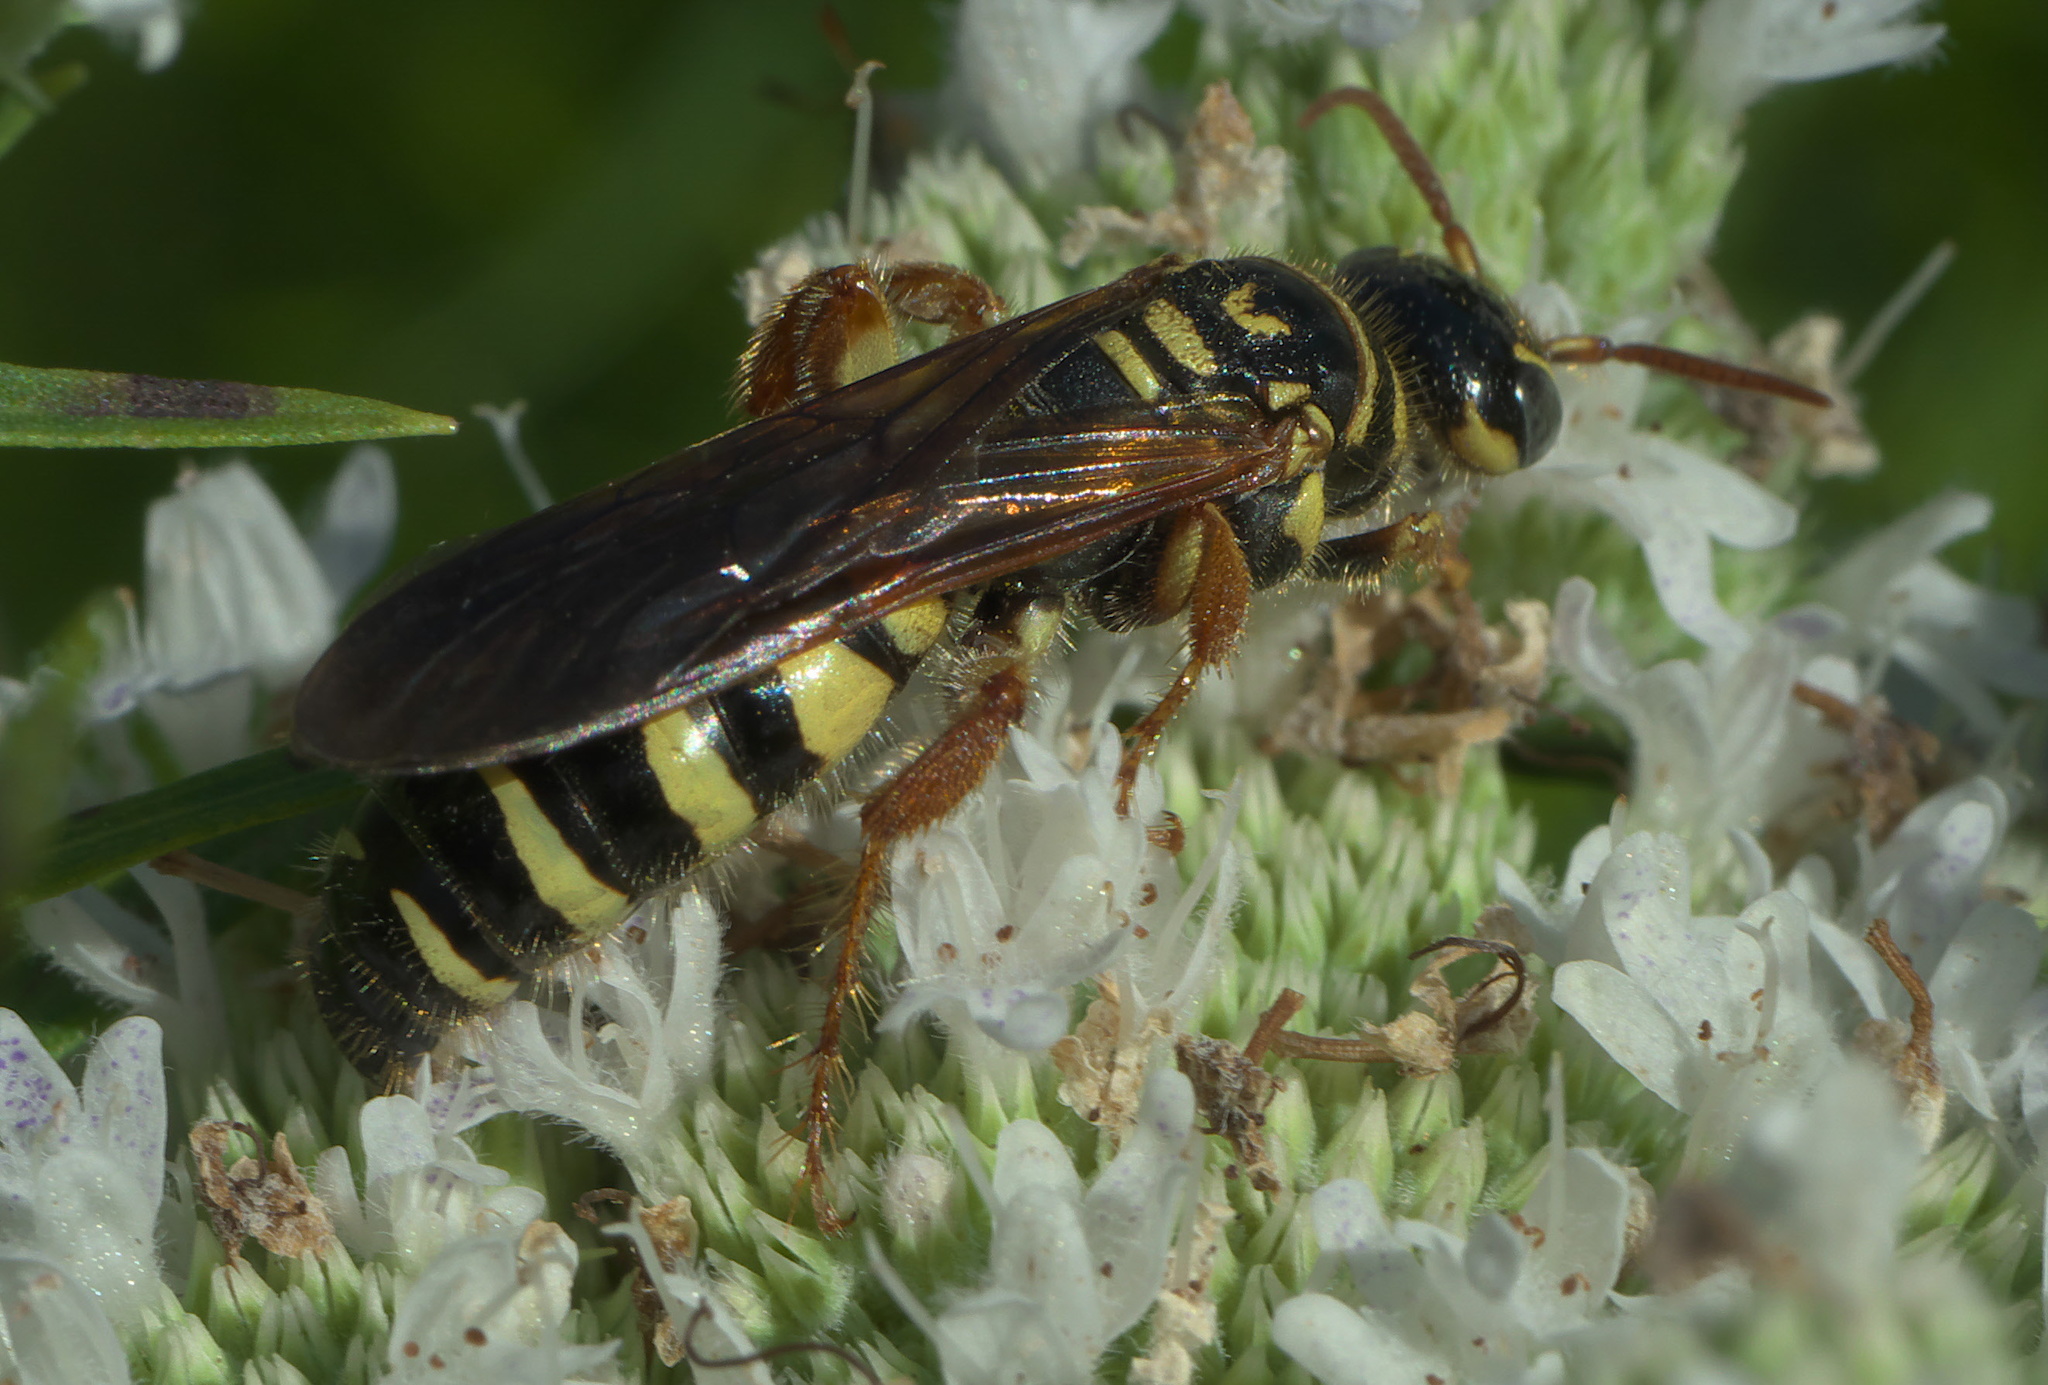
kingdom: Animalia
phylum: Arthropoda
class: Insecta
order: Hymenoptera
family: Tiphiidae
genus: Myzinum
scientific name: Myzinum quinquecinctum
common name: Five-banded thynnid wasp
